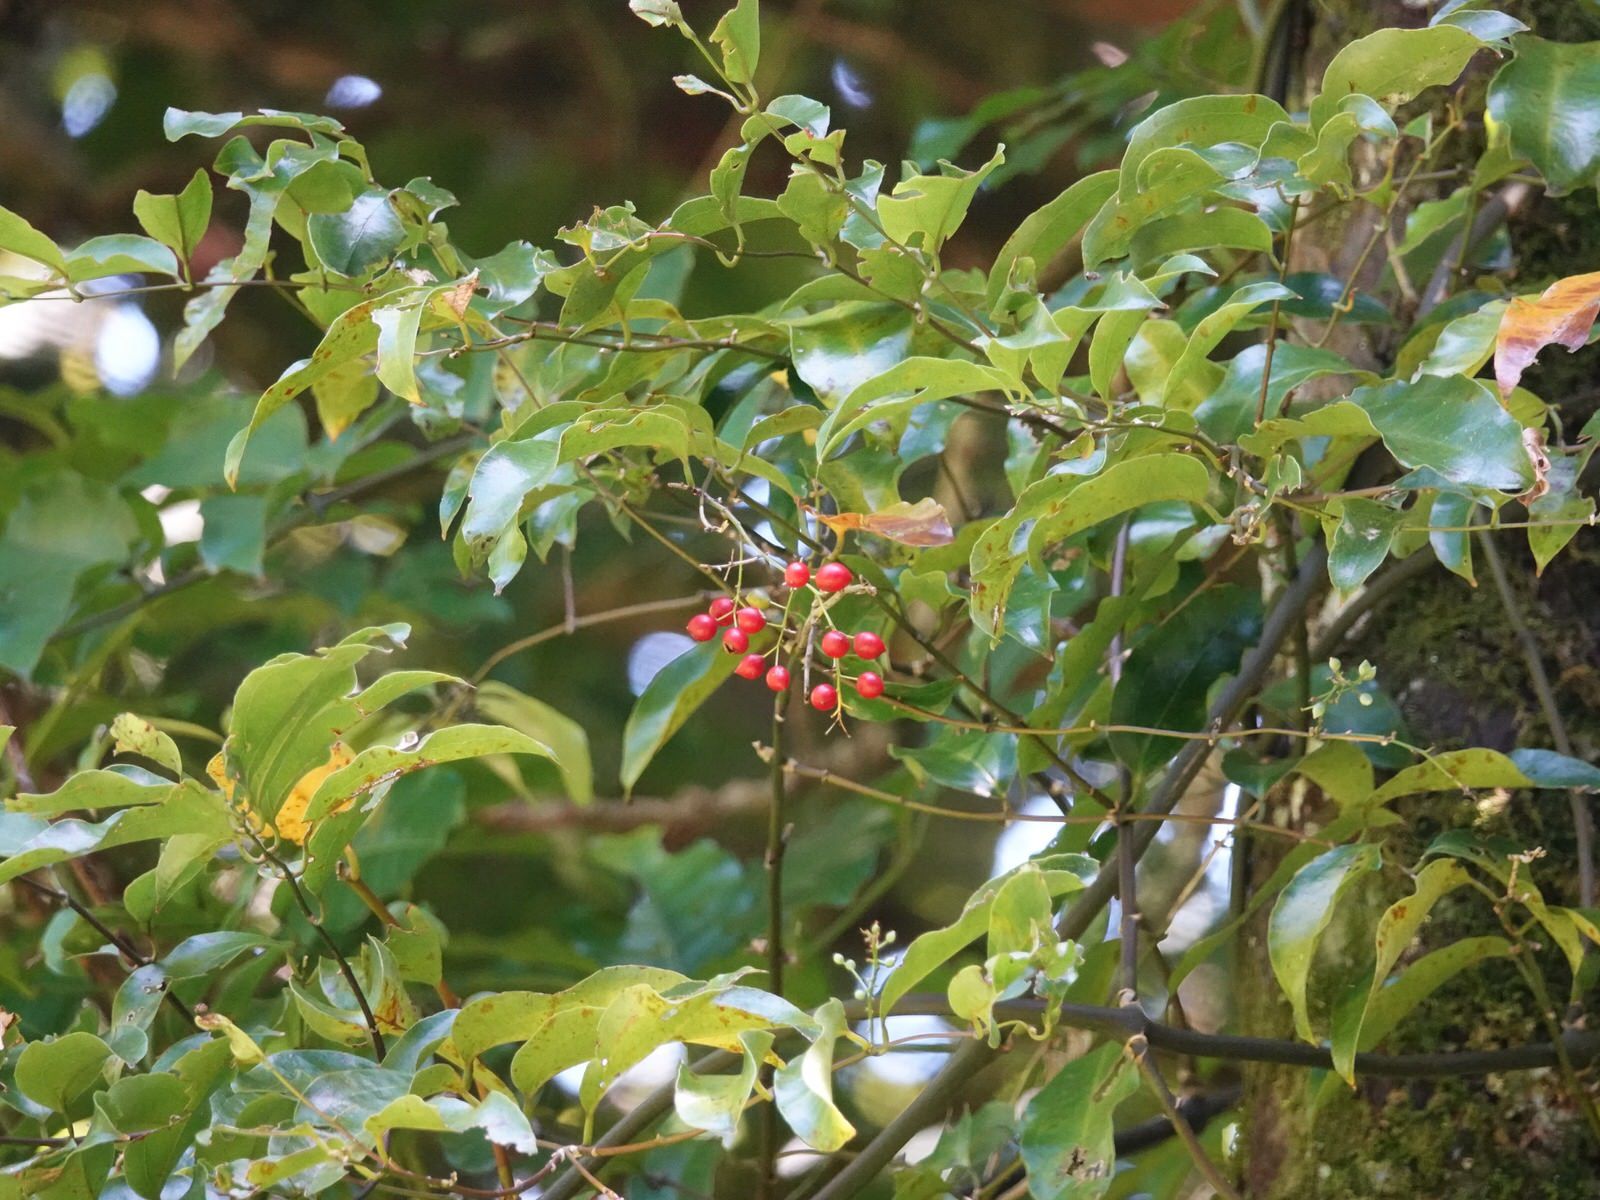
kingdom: Plantae
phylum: Tracheophyta
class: Liliopsida
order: Liliales
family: Ripogonaceae
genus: Ripogonum
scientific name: Ripogonum scandens
